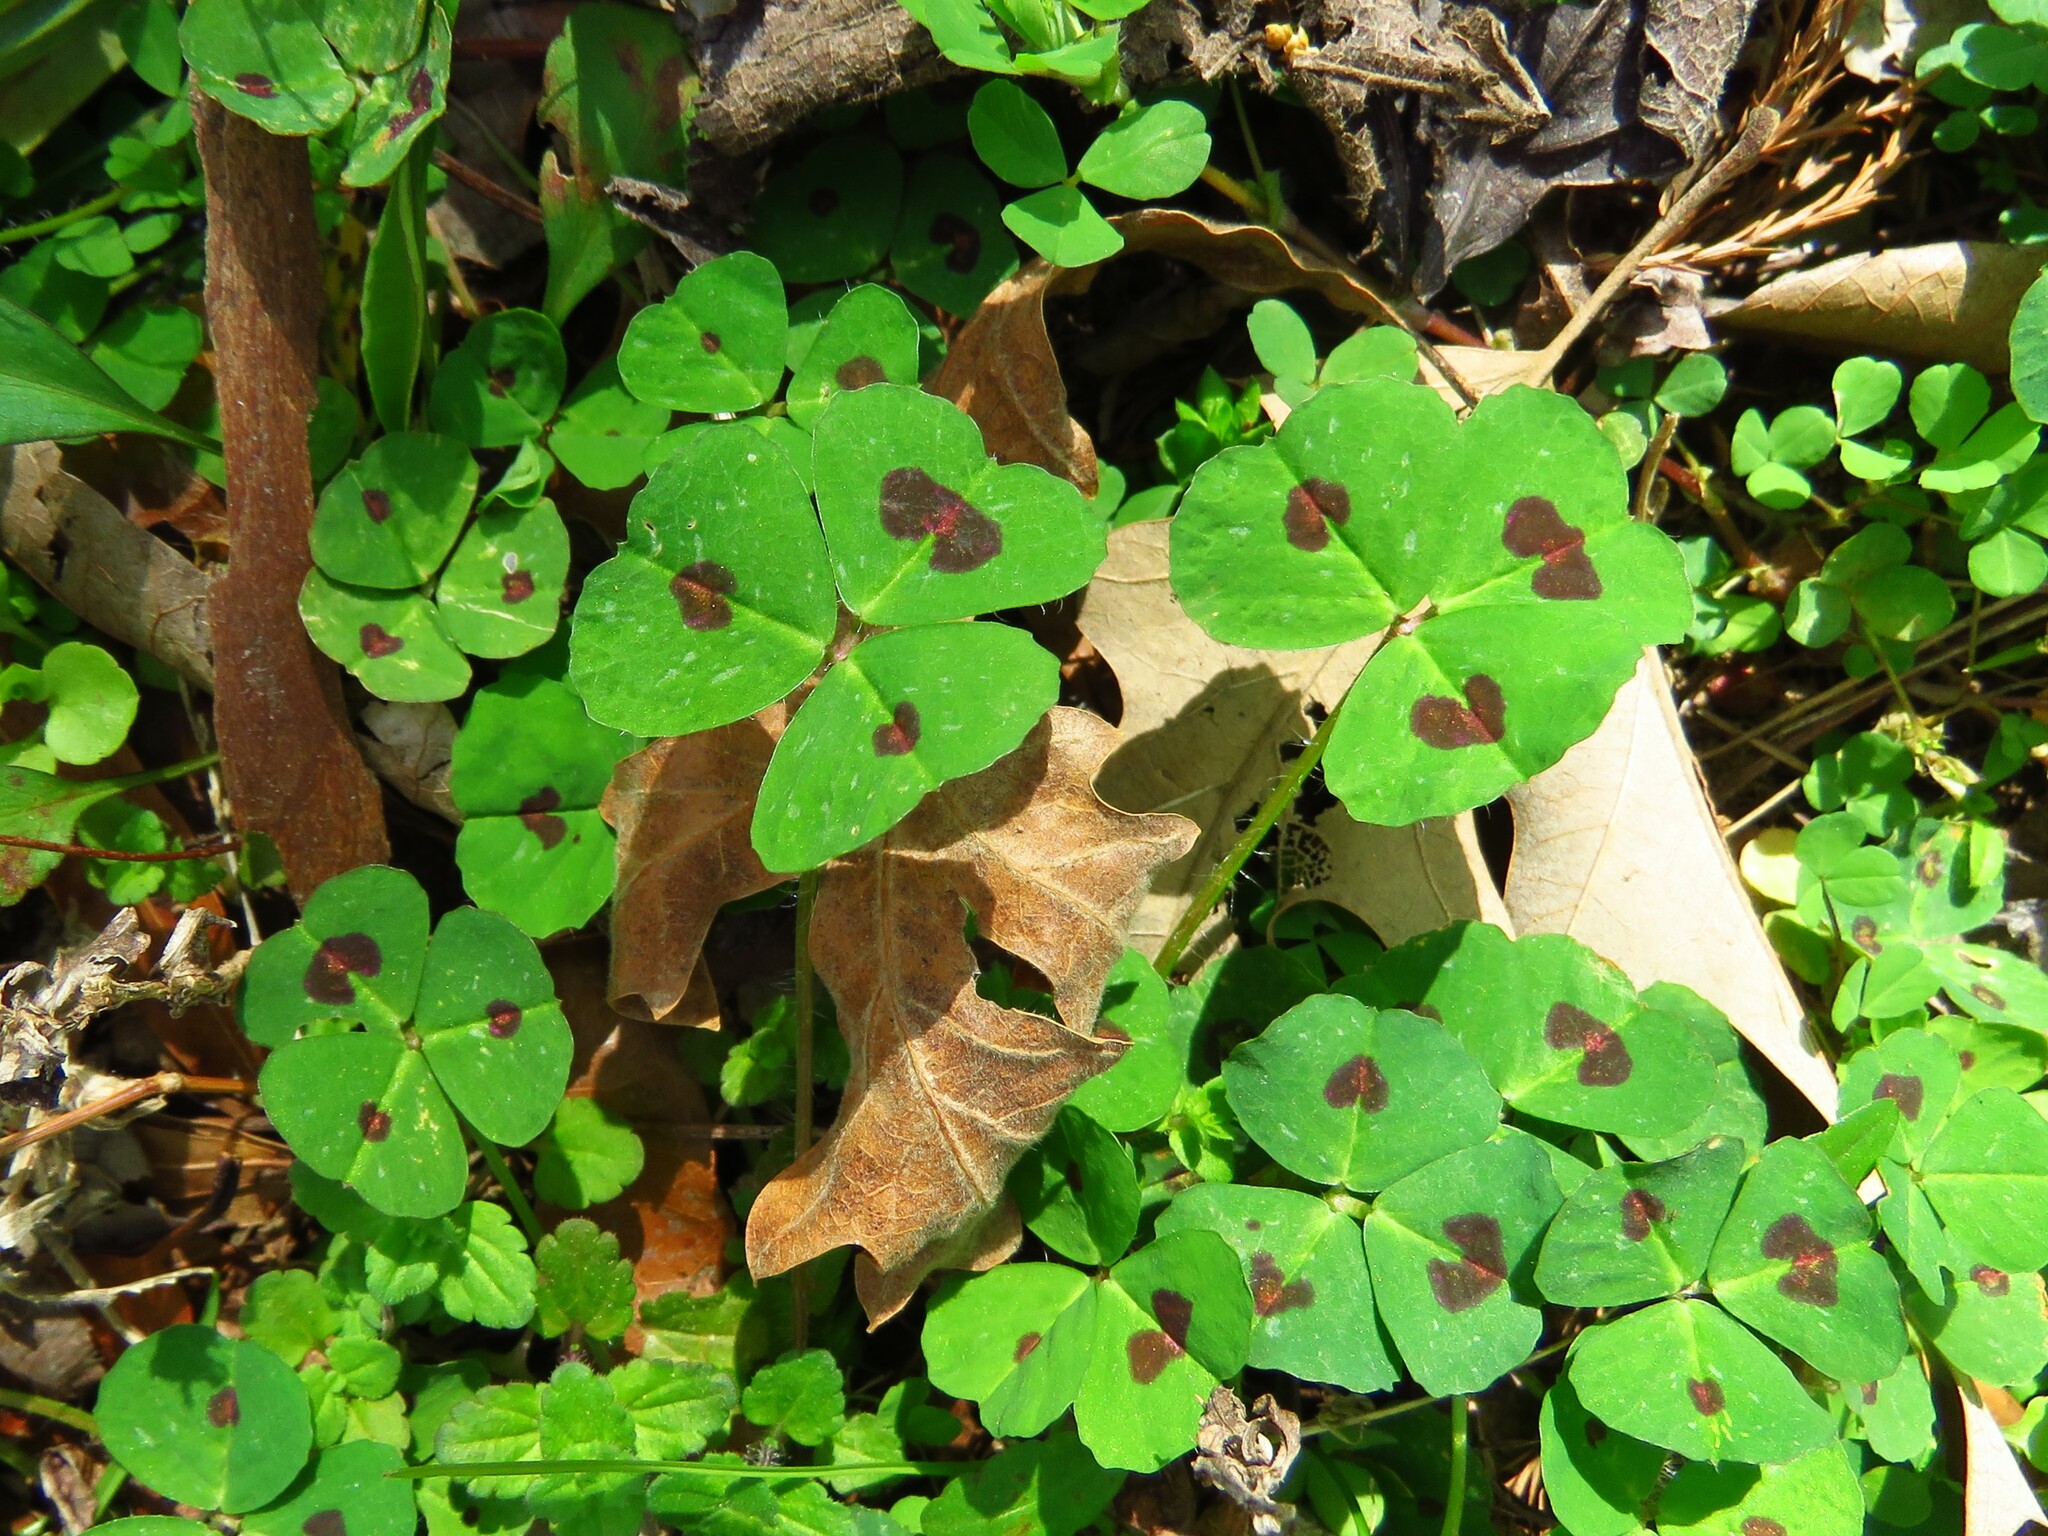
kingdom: Plantae
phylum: Tracheophyta
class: Magnoliopsida
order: Fabales
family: Fabaceae
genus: Medicago
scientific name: Medicago arabica
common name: Spotted medick
